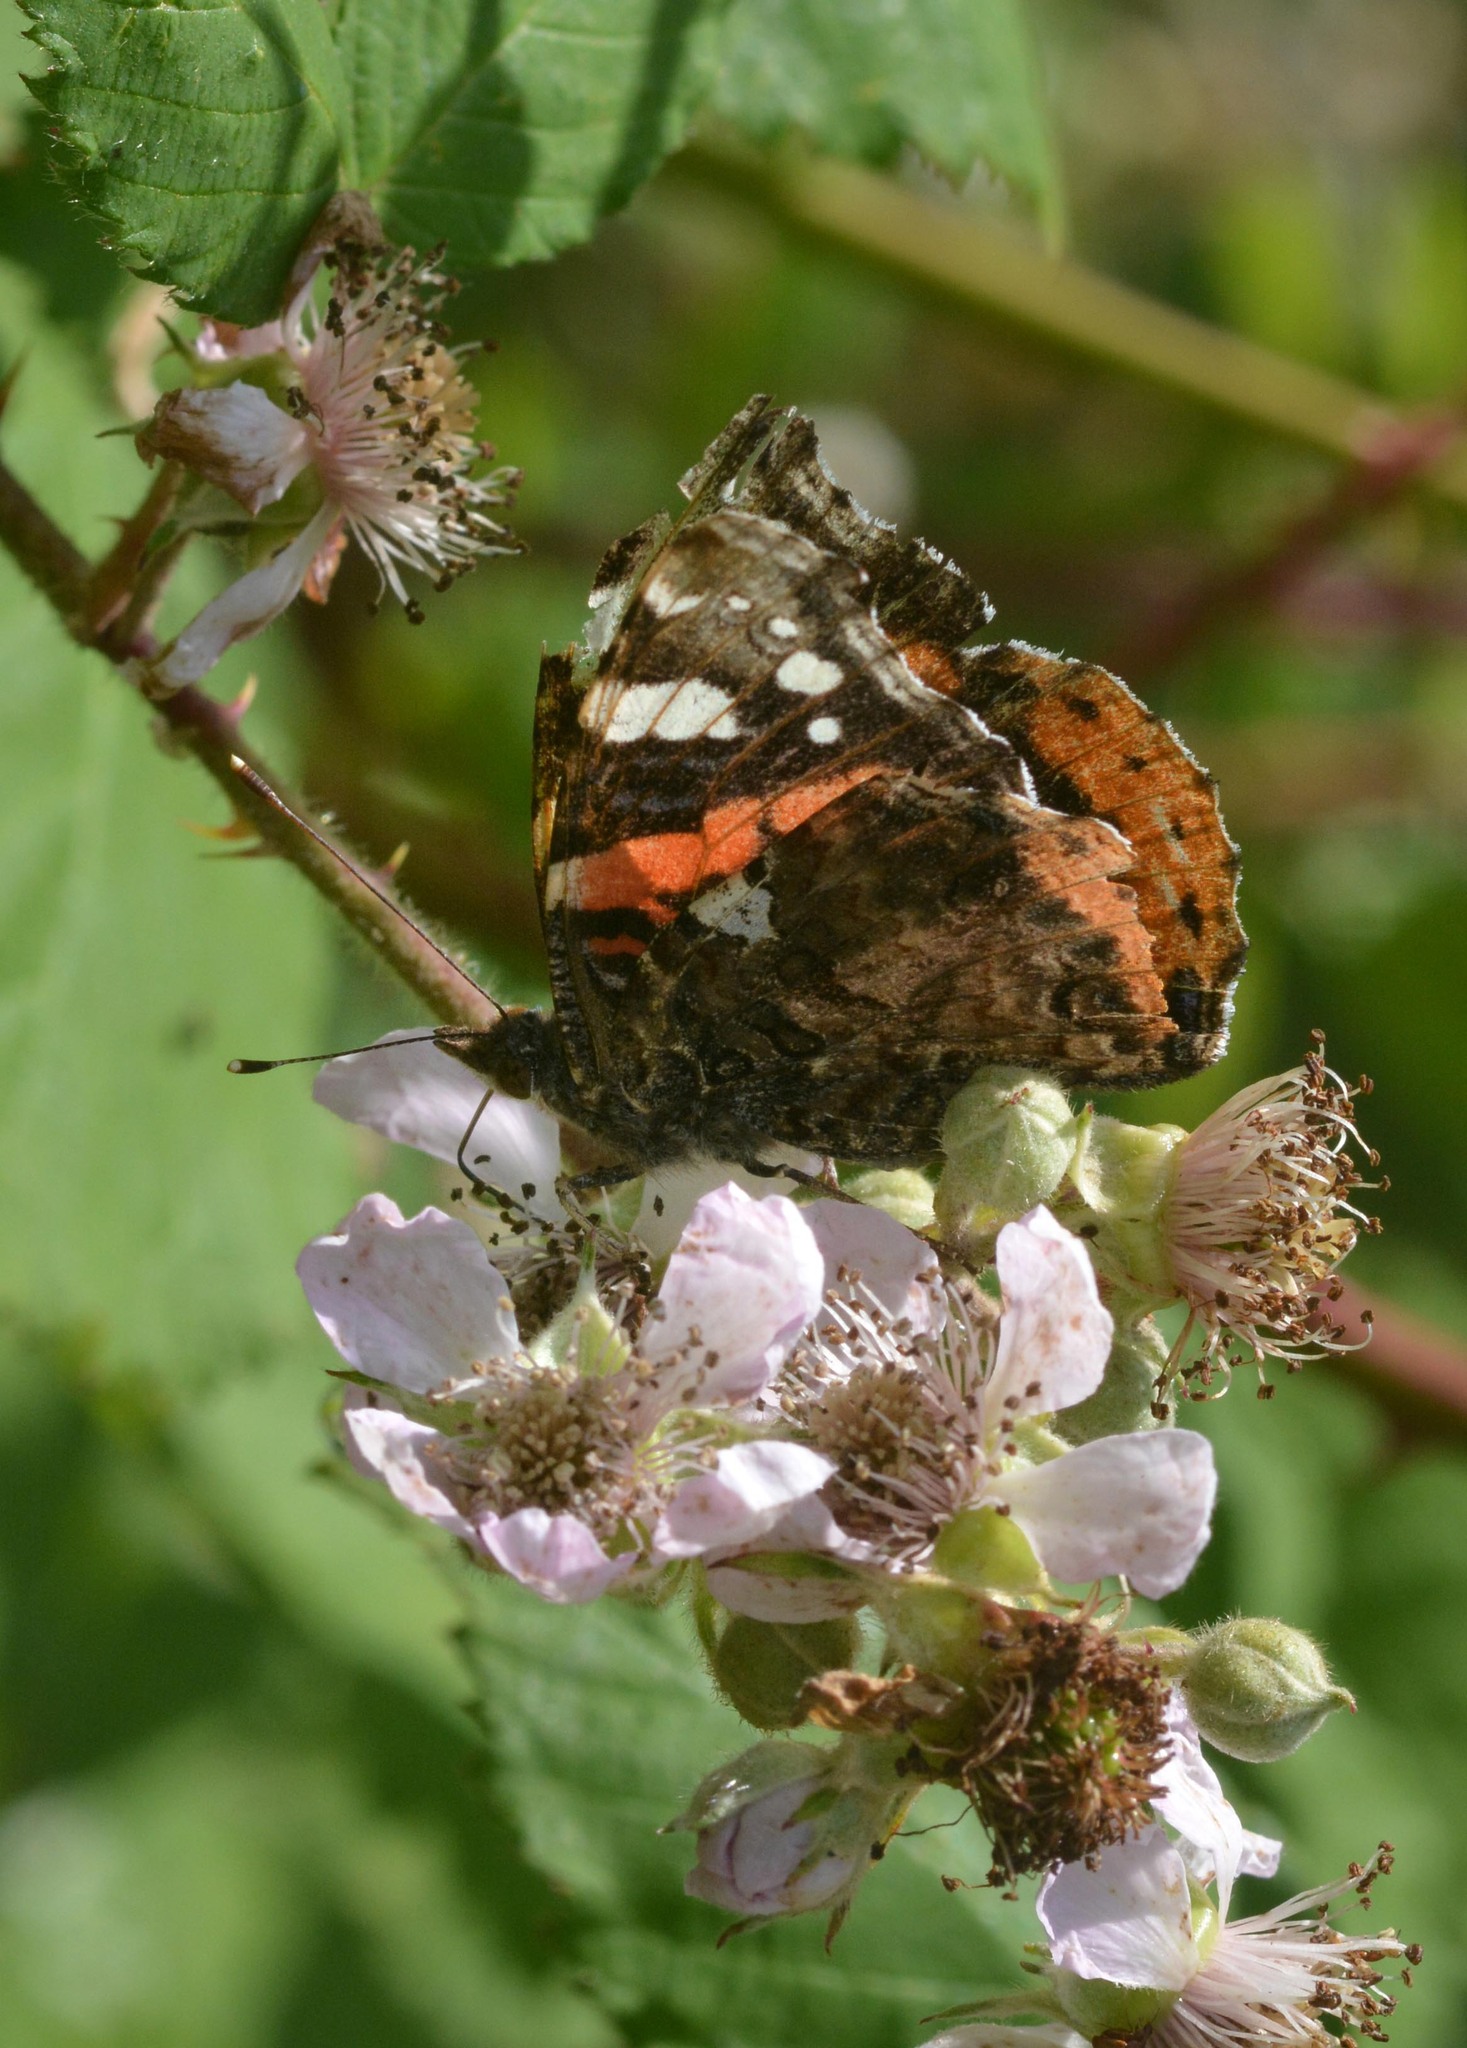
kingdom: Animalia
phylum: Arthropoda
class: Insecta
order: Lepidoptera
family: Nymphalidae
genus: Vanessa
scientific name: Vanessa atalanta
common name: Red admiral
